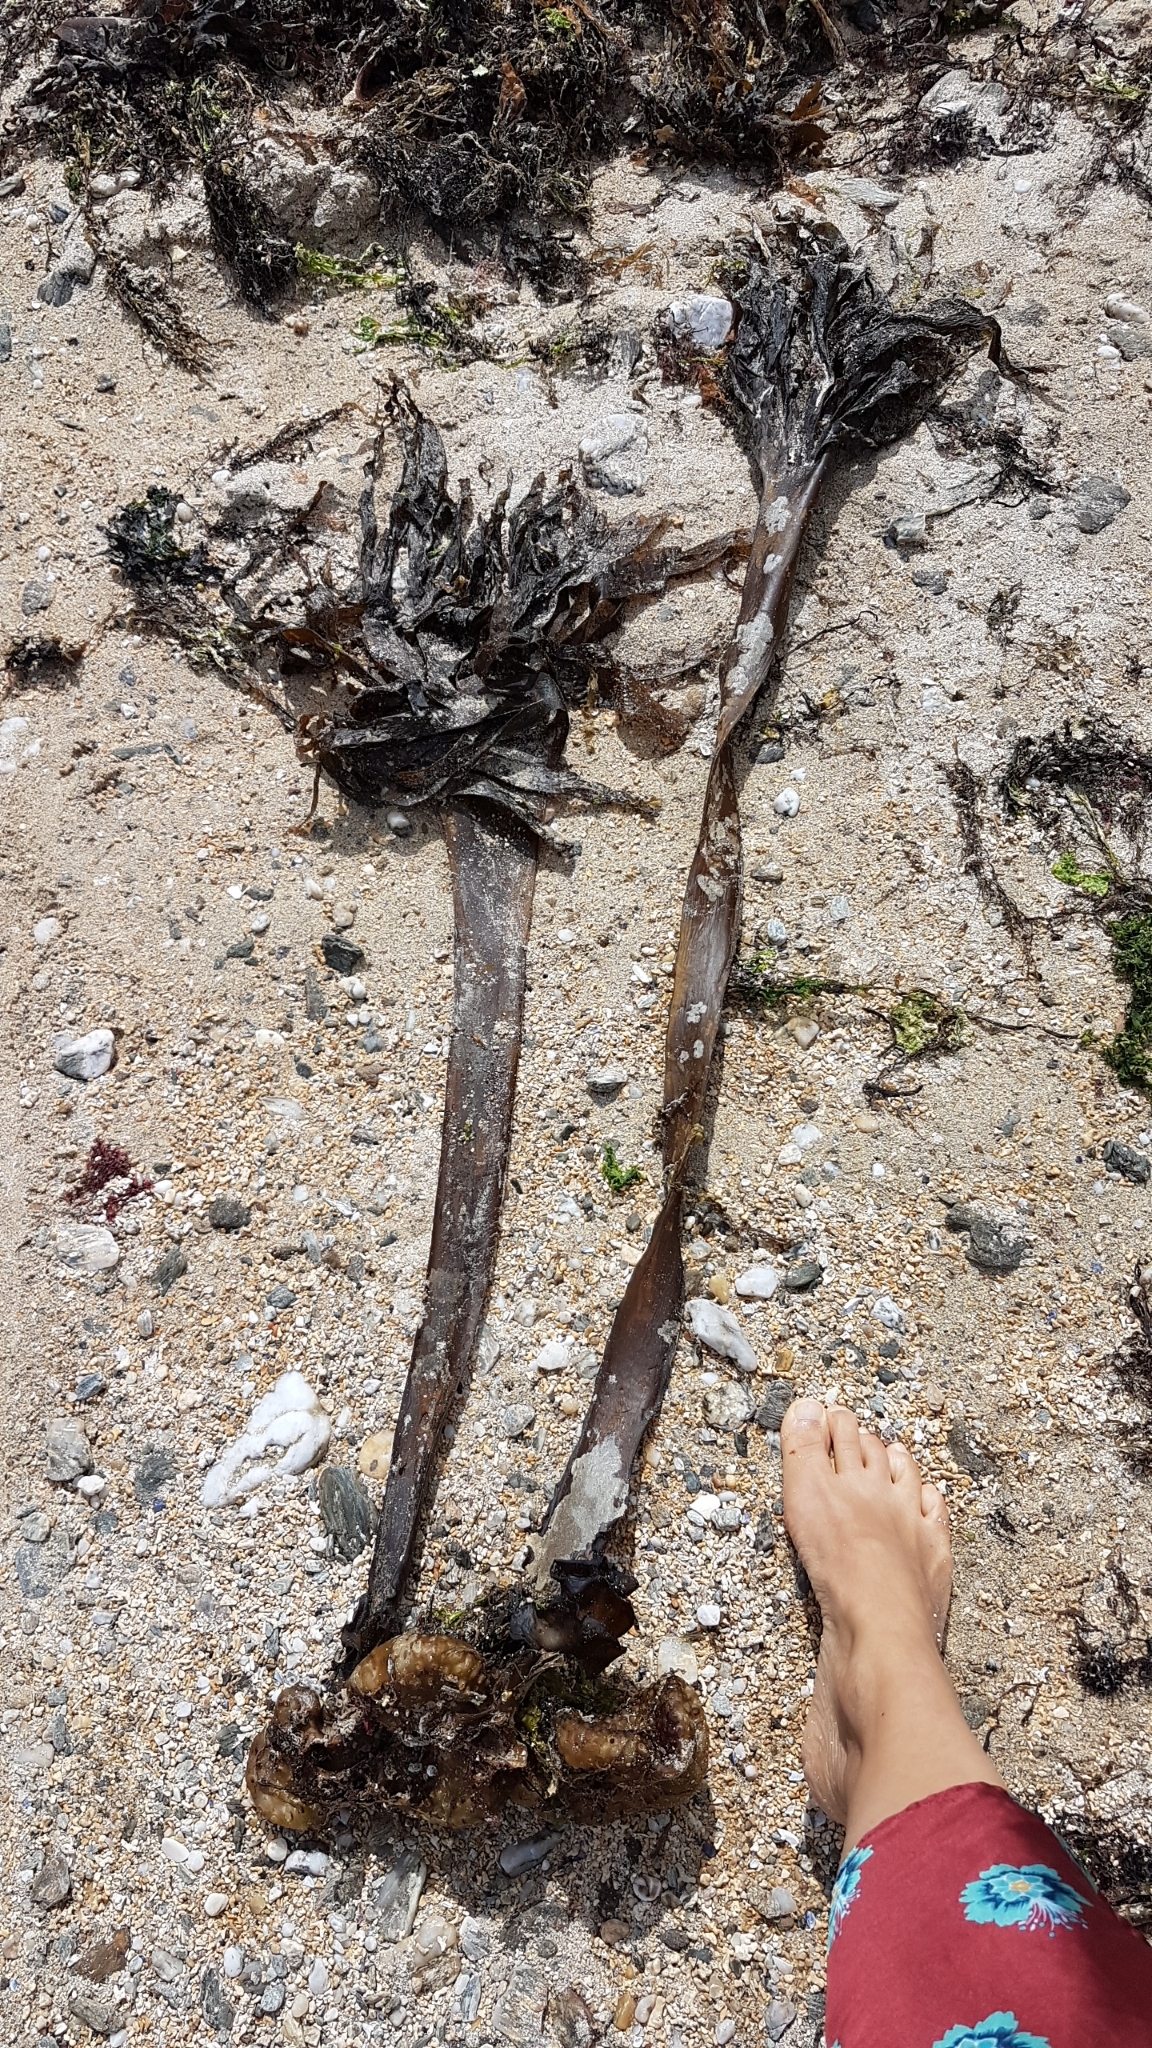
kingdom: Chromista
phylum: Ochrophyta
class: Phaeophyceae
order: Tilopteridales
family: Phyllariaceae
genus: Saccorhiza
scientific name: Saccorhiza polyschides
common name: Furbelows
